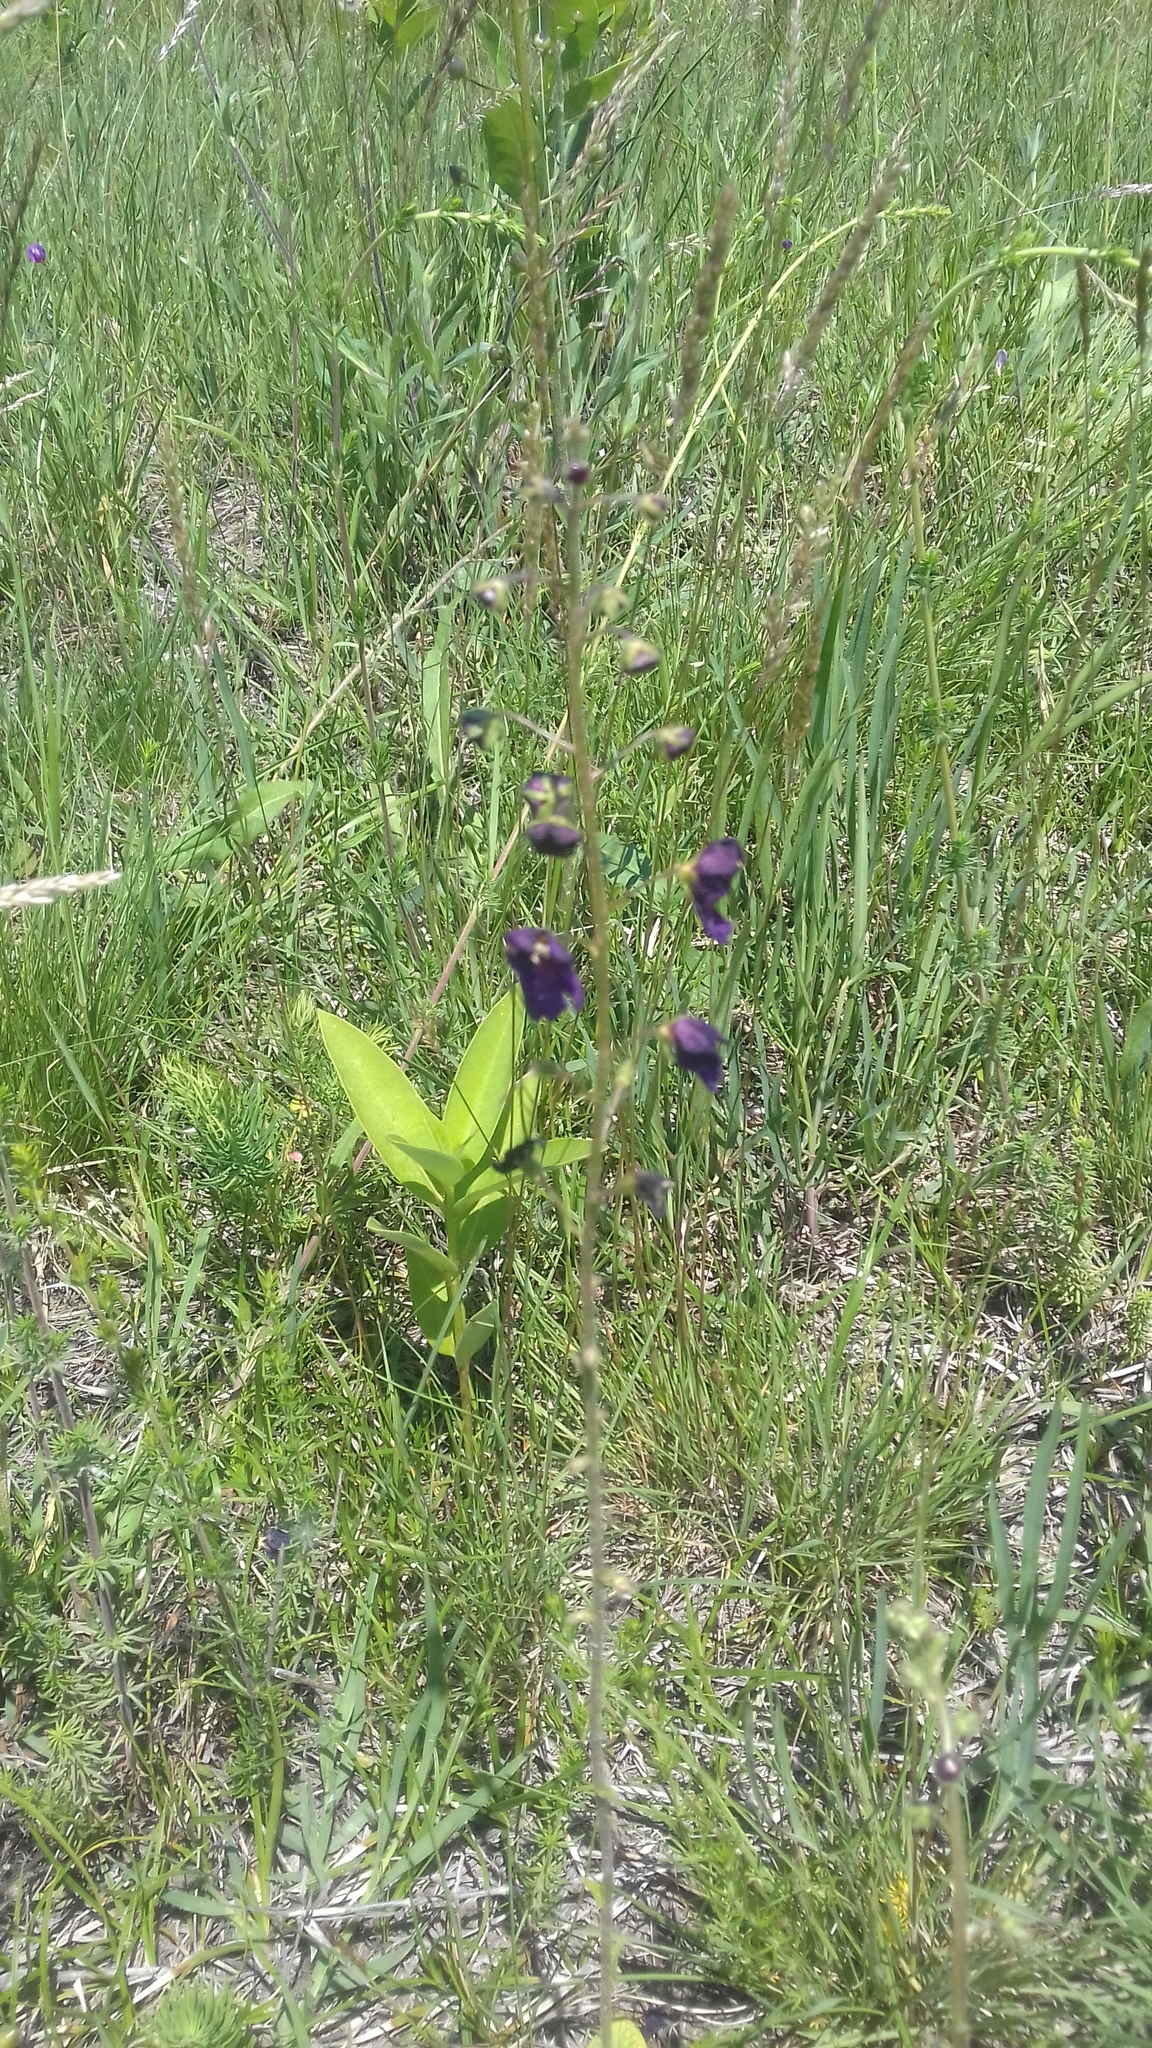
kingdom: Plantae
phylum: Tracheophyta
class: Magnoliopsida
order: Lamiales
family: Scrophulariaceae
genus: Verbascum
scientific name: Verbascum phoeniceum
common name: Purple mullein
